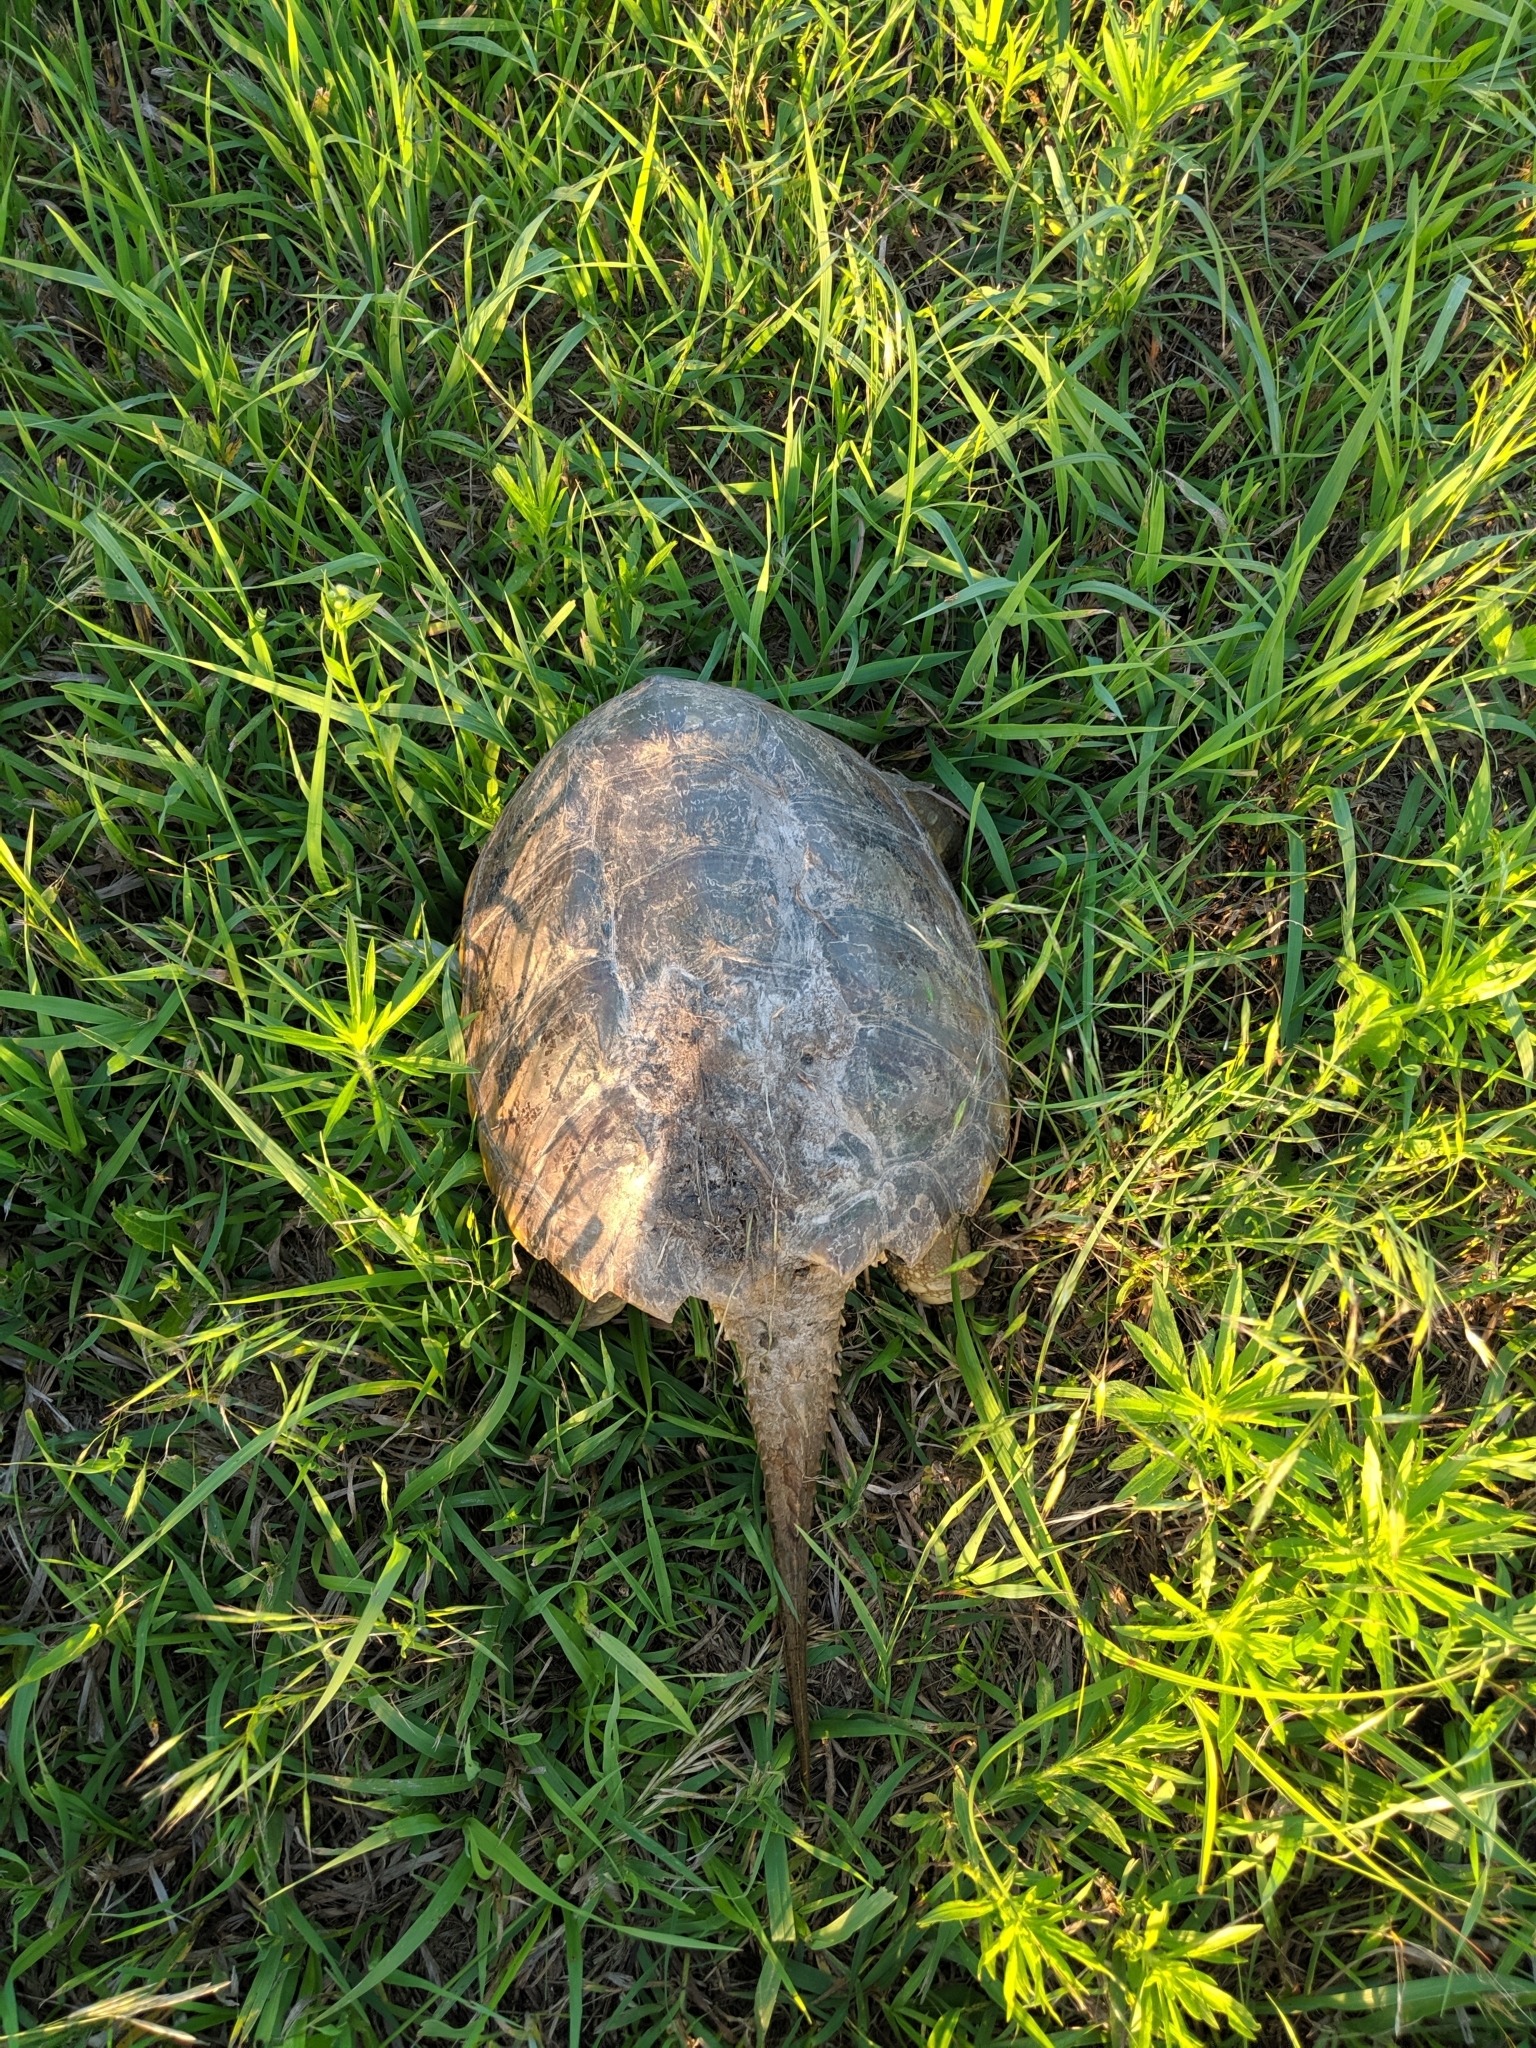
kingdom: Animalia
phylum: Chordata
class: Testudines
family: Chelydridae
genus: Chelydra
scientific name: Chelydra serpentina
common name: Common snapping turtle
